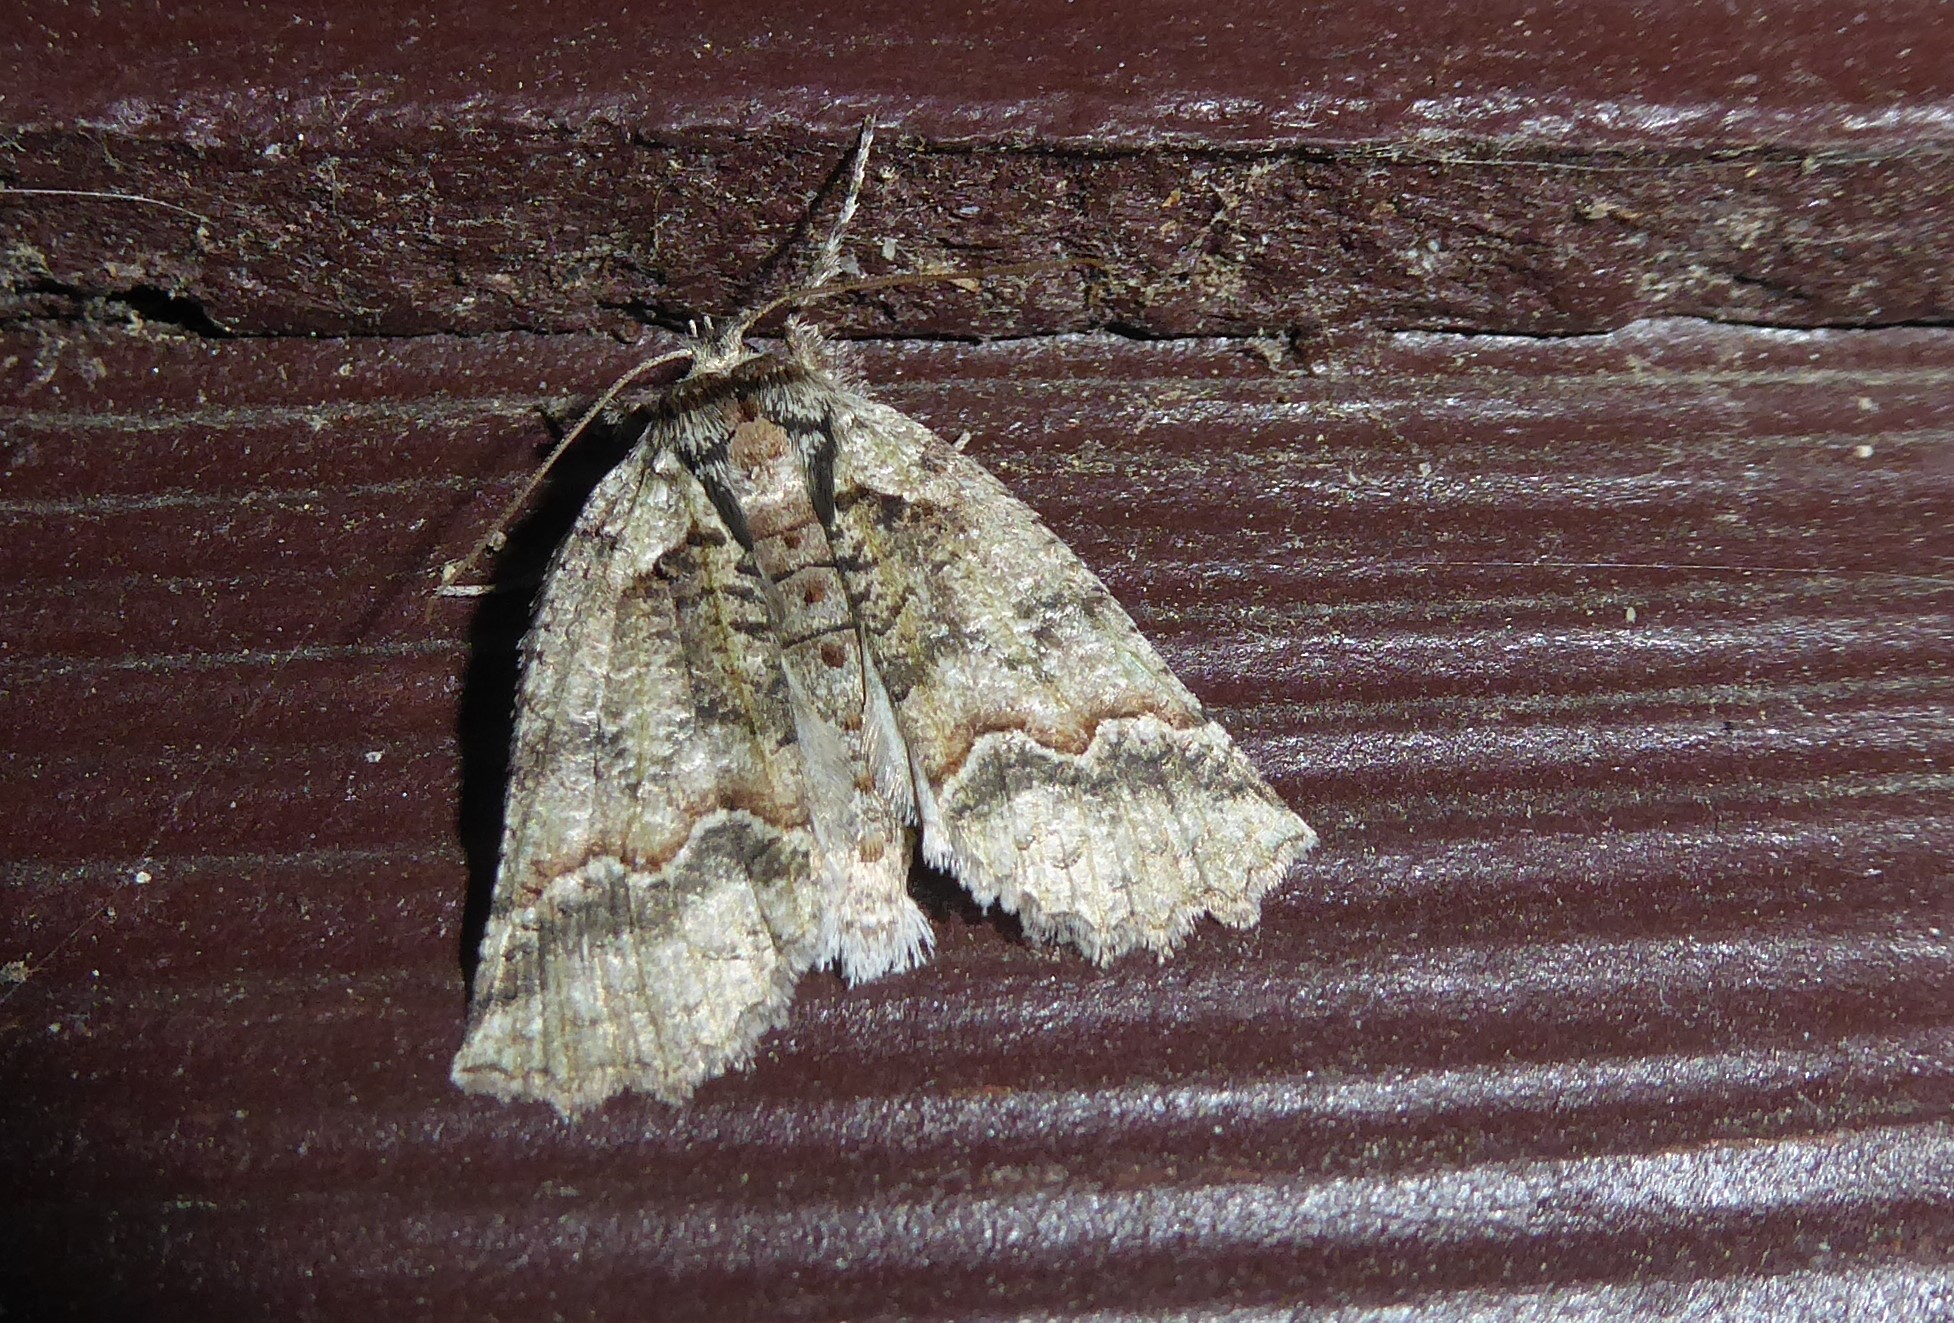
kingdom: Animalia
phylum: Arthropoda
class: Insecta
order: Lepidoptera
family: Geometridae
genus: Declana
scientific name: Declana floccosa
